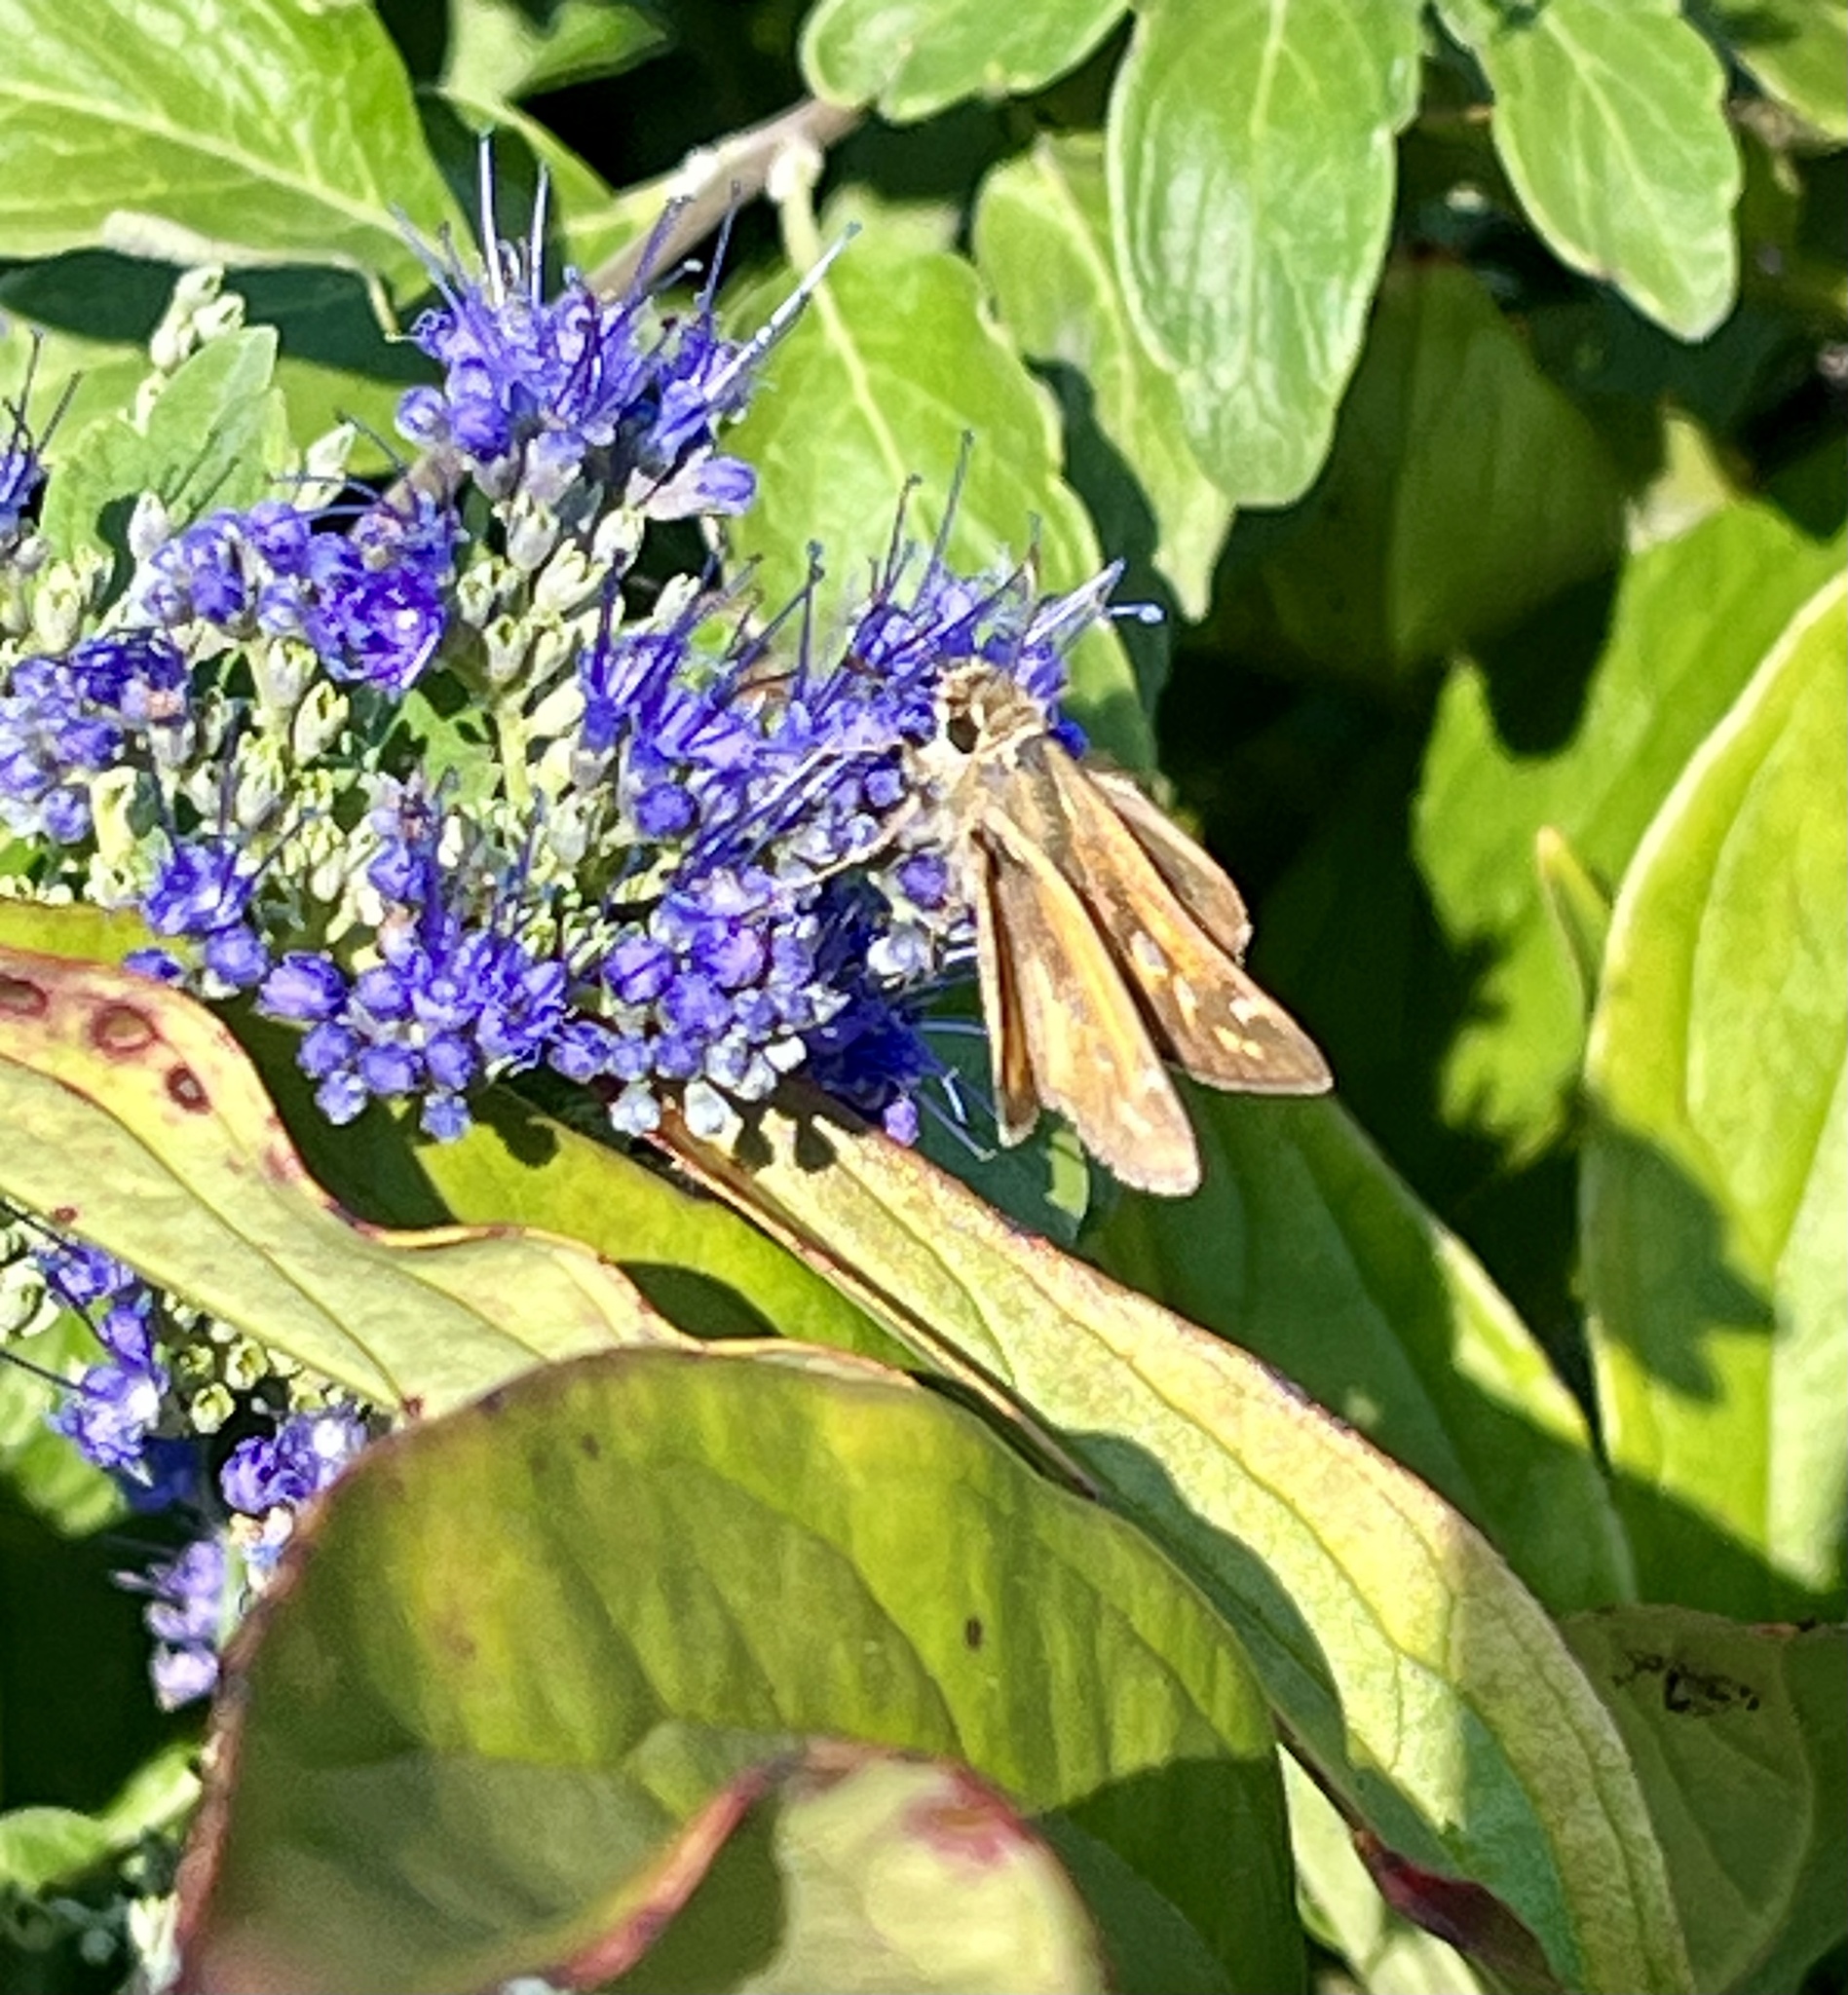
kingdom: Animalia
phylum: Arthropoda
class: Insecta
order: Lepidoptera
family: Hesperiidae
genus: Atalopedes
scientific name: Atalopedes
